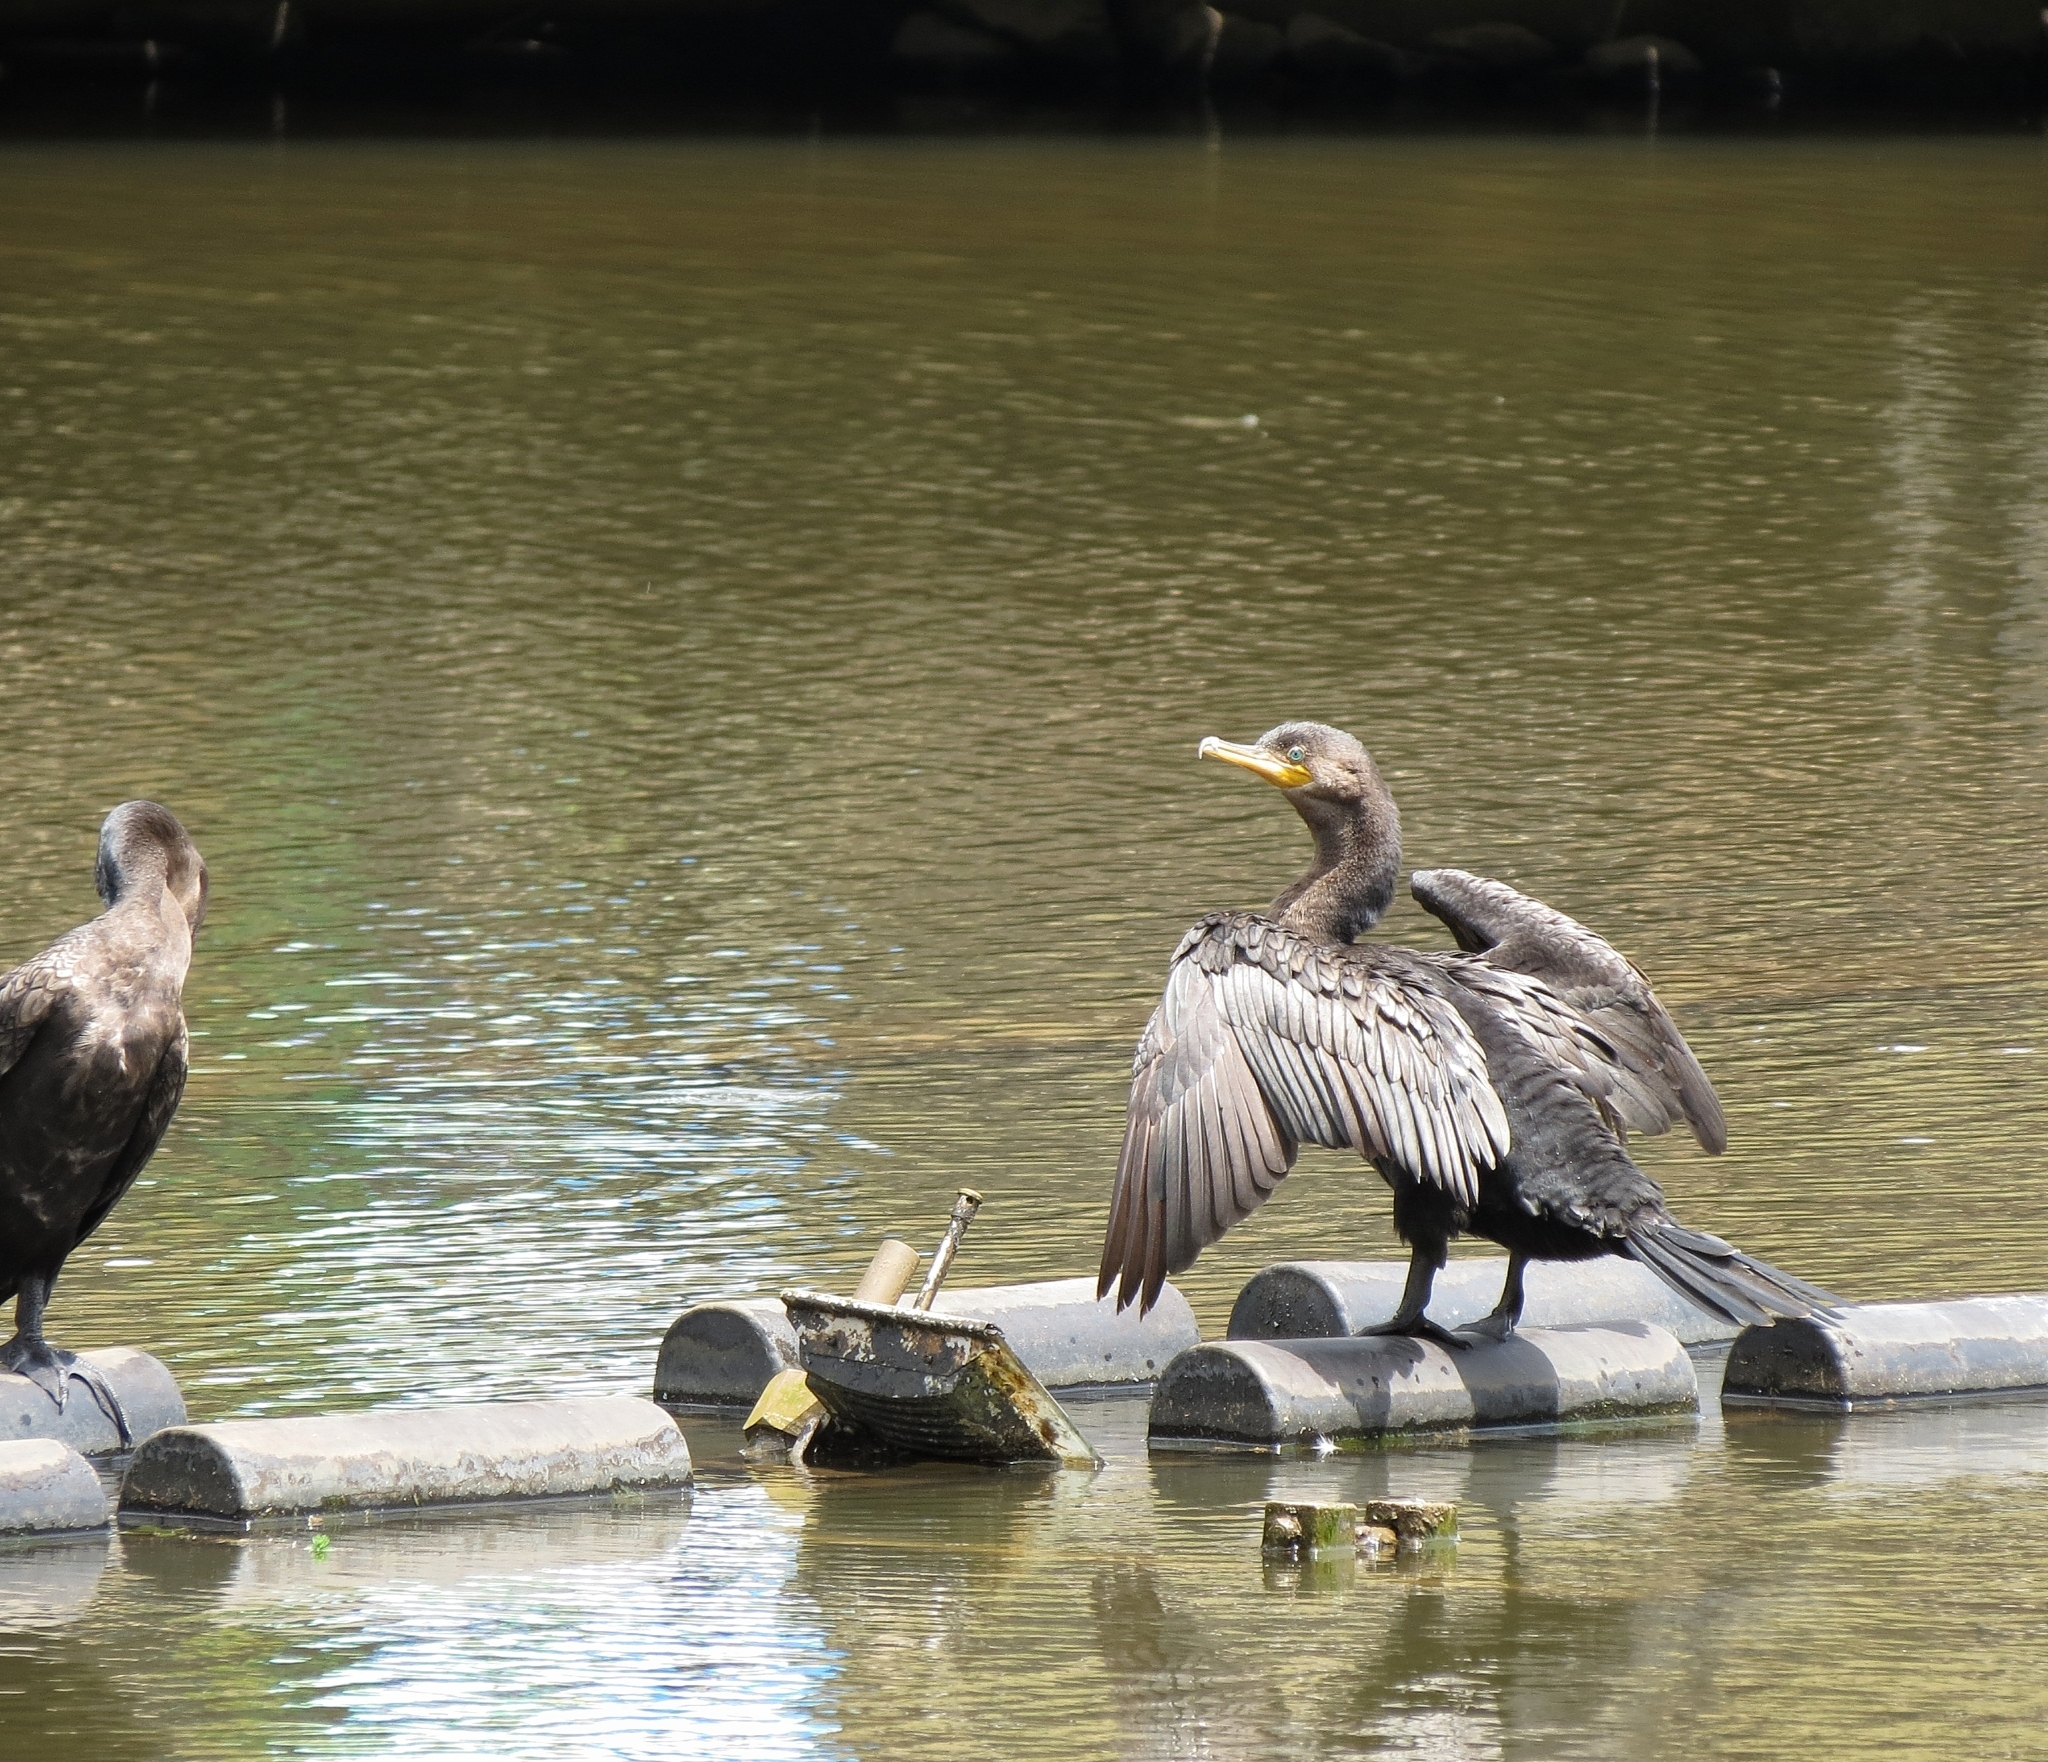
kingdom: Animalia
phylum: Chordata
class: Aves
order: Suliformes
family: Phalacrocoracidae
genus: Phalacrocorax
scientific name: Phalacrocorax brasilianus
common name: Neotropic cormorant
